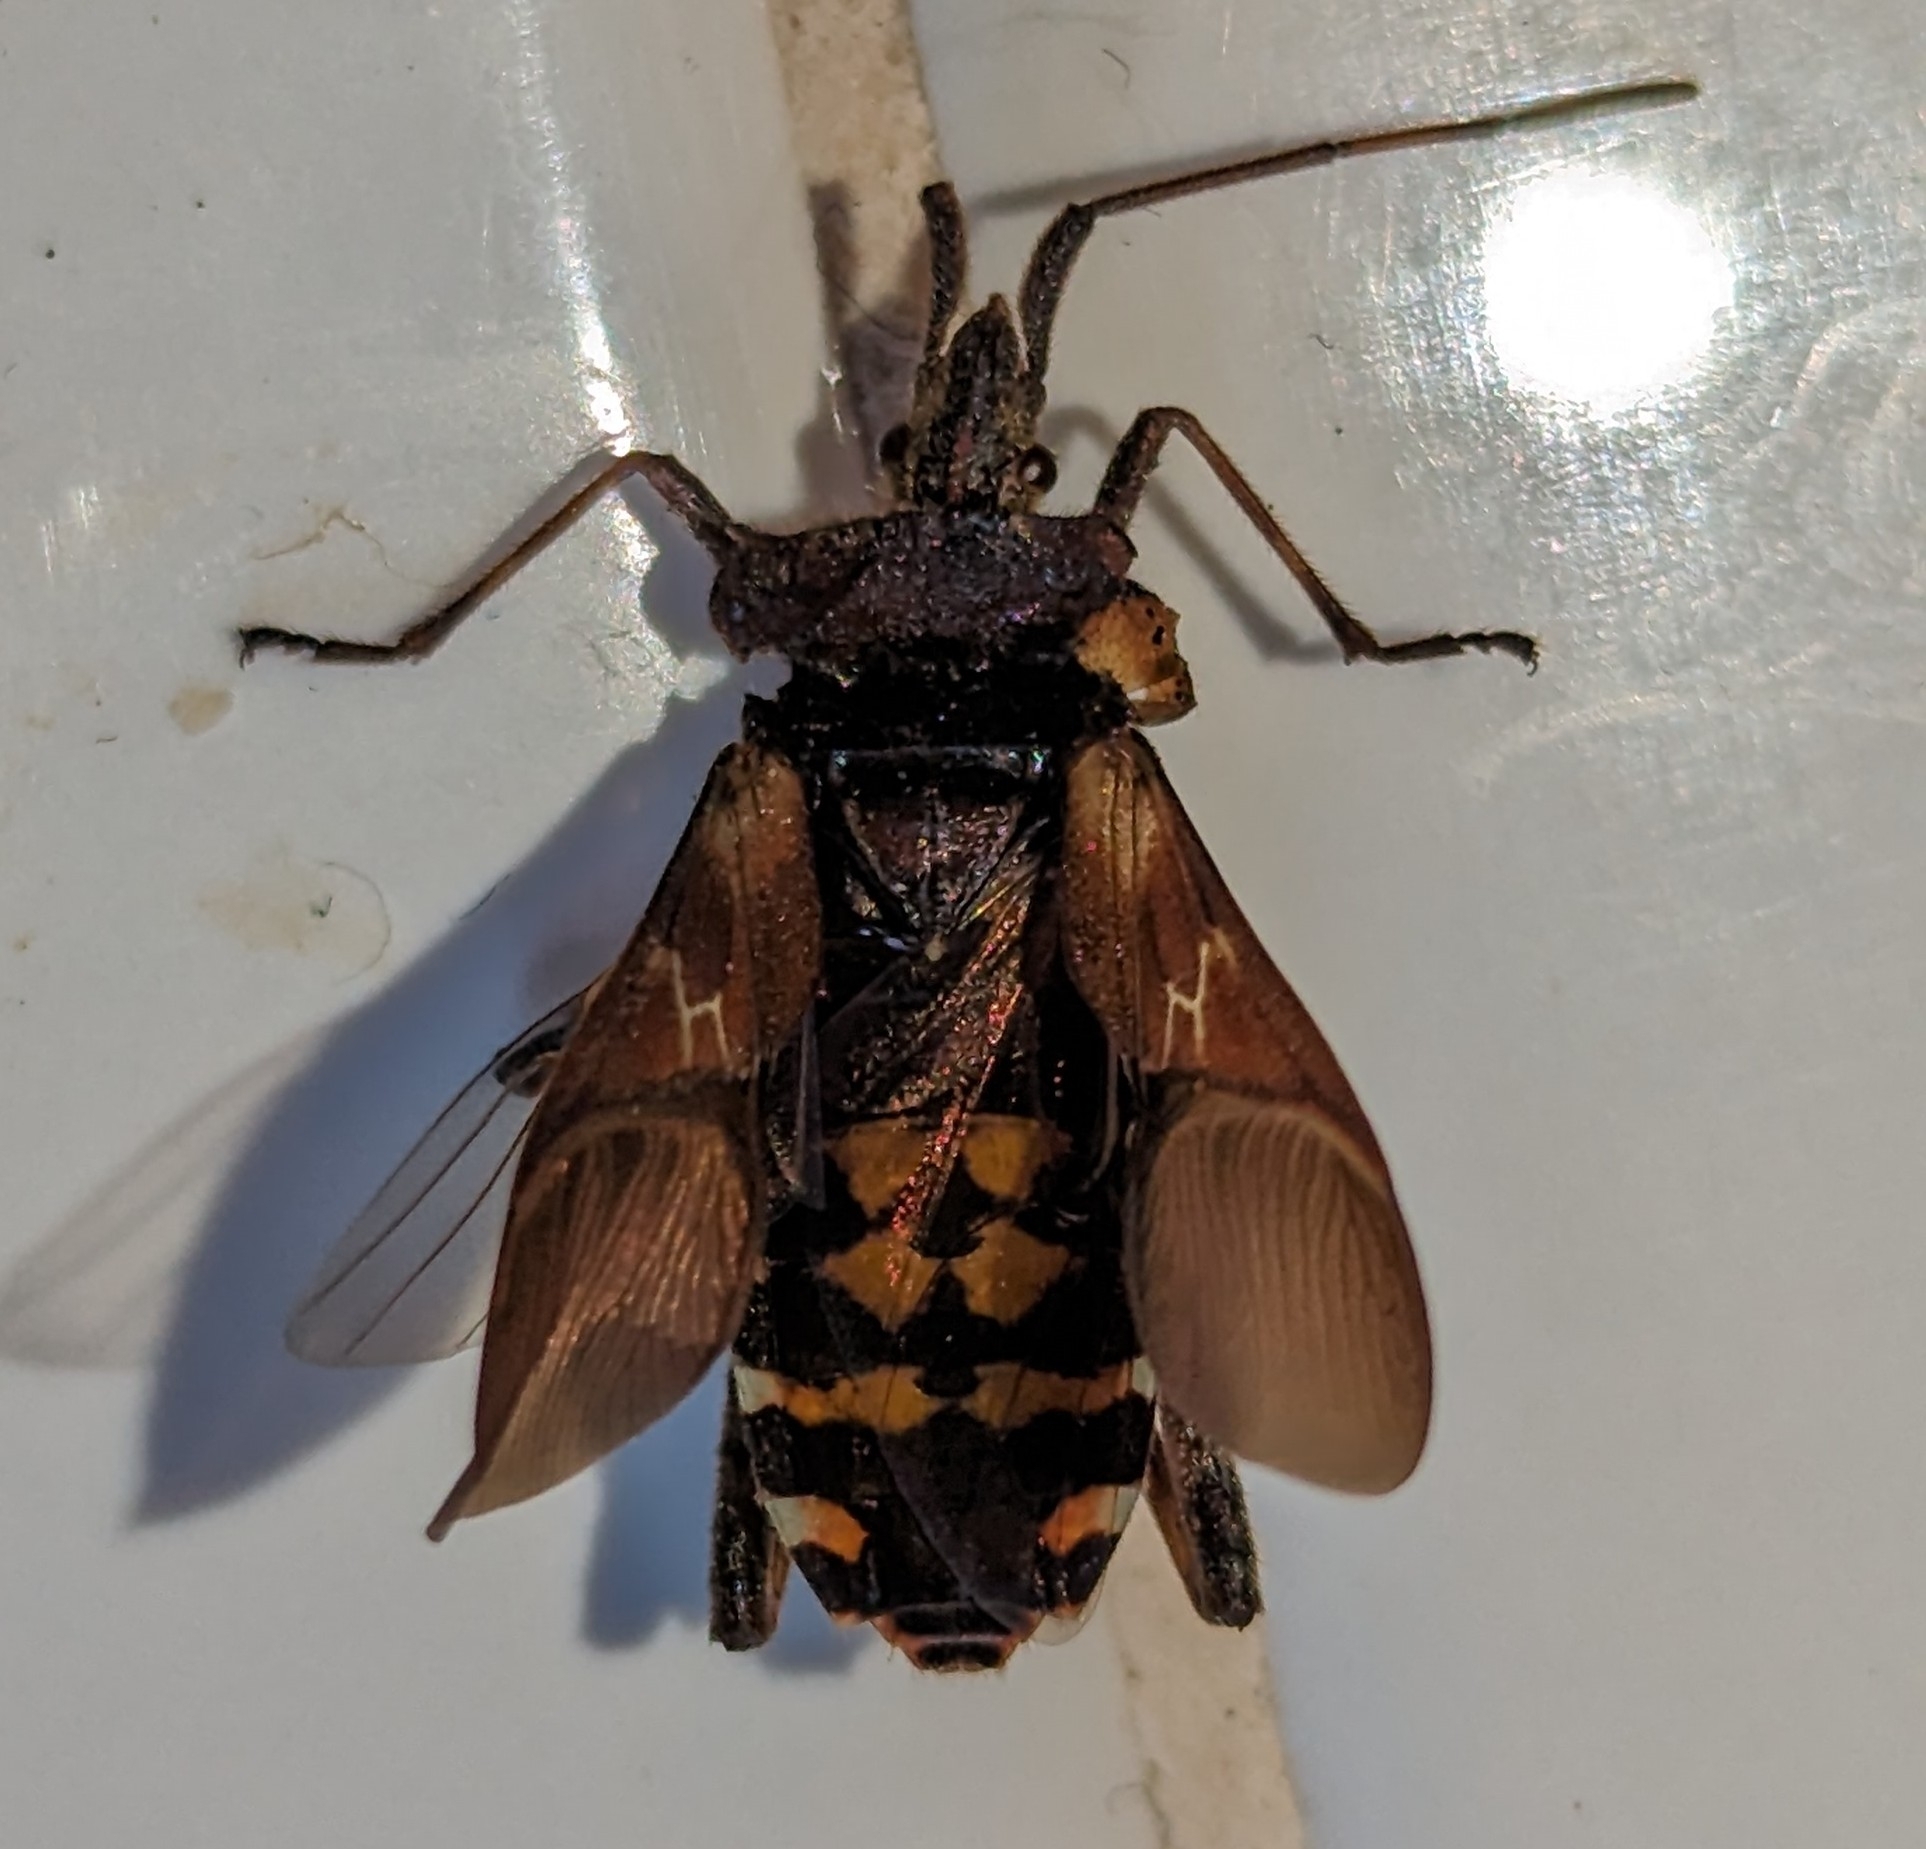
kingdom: Animalia
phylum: Arthropoda
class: Insecta
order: Hemiptera
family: Coreidae
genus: Leptoglossus
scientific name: Leptoglossus occidentalis
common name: Western conifer-seed bug
